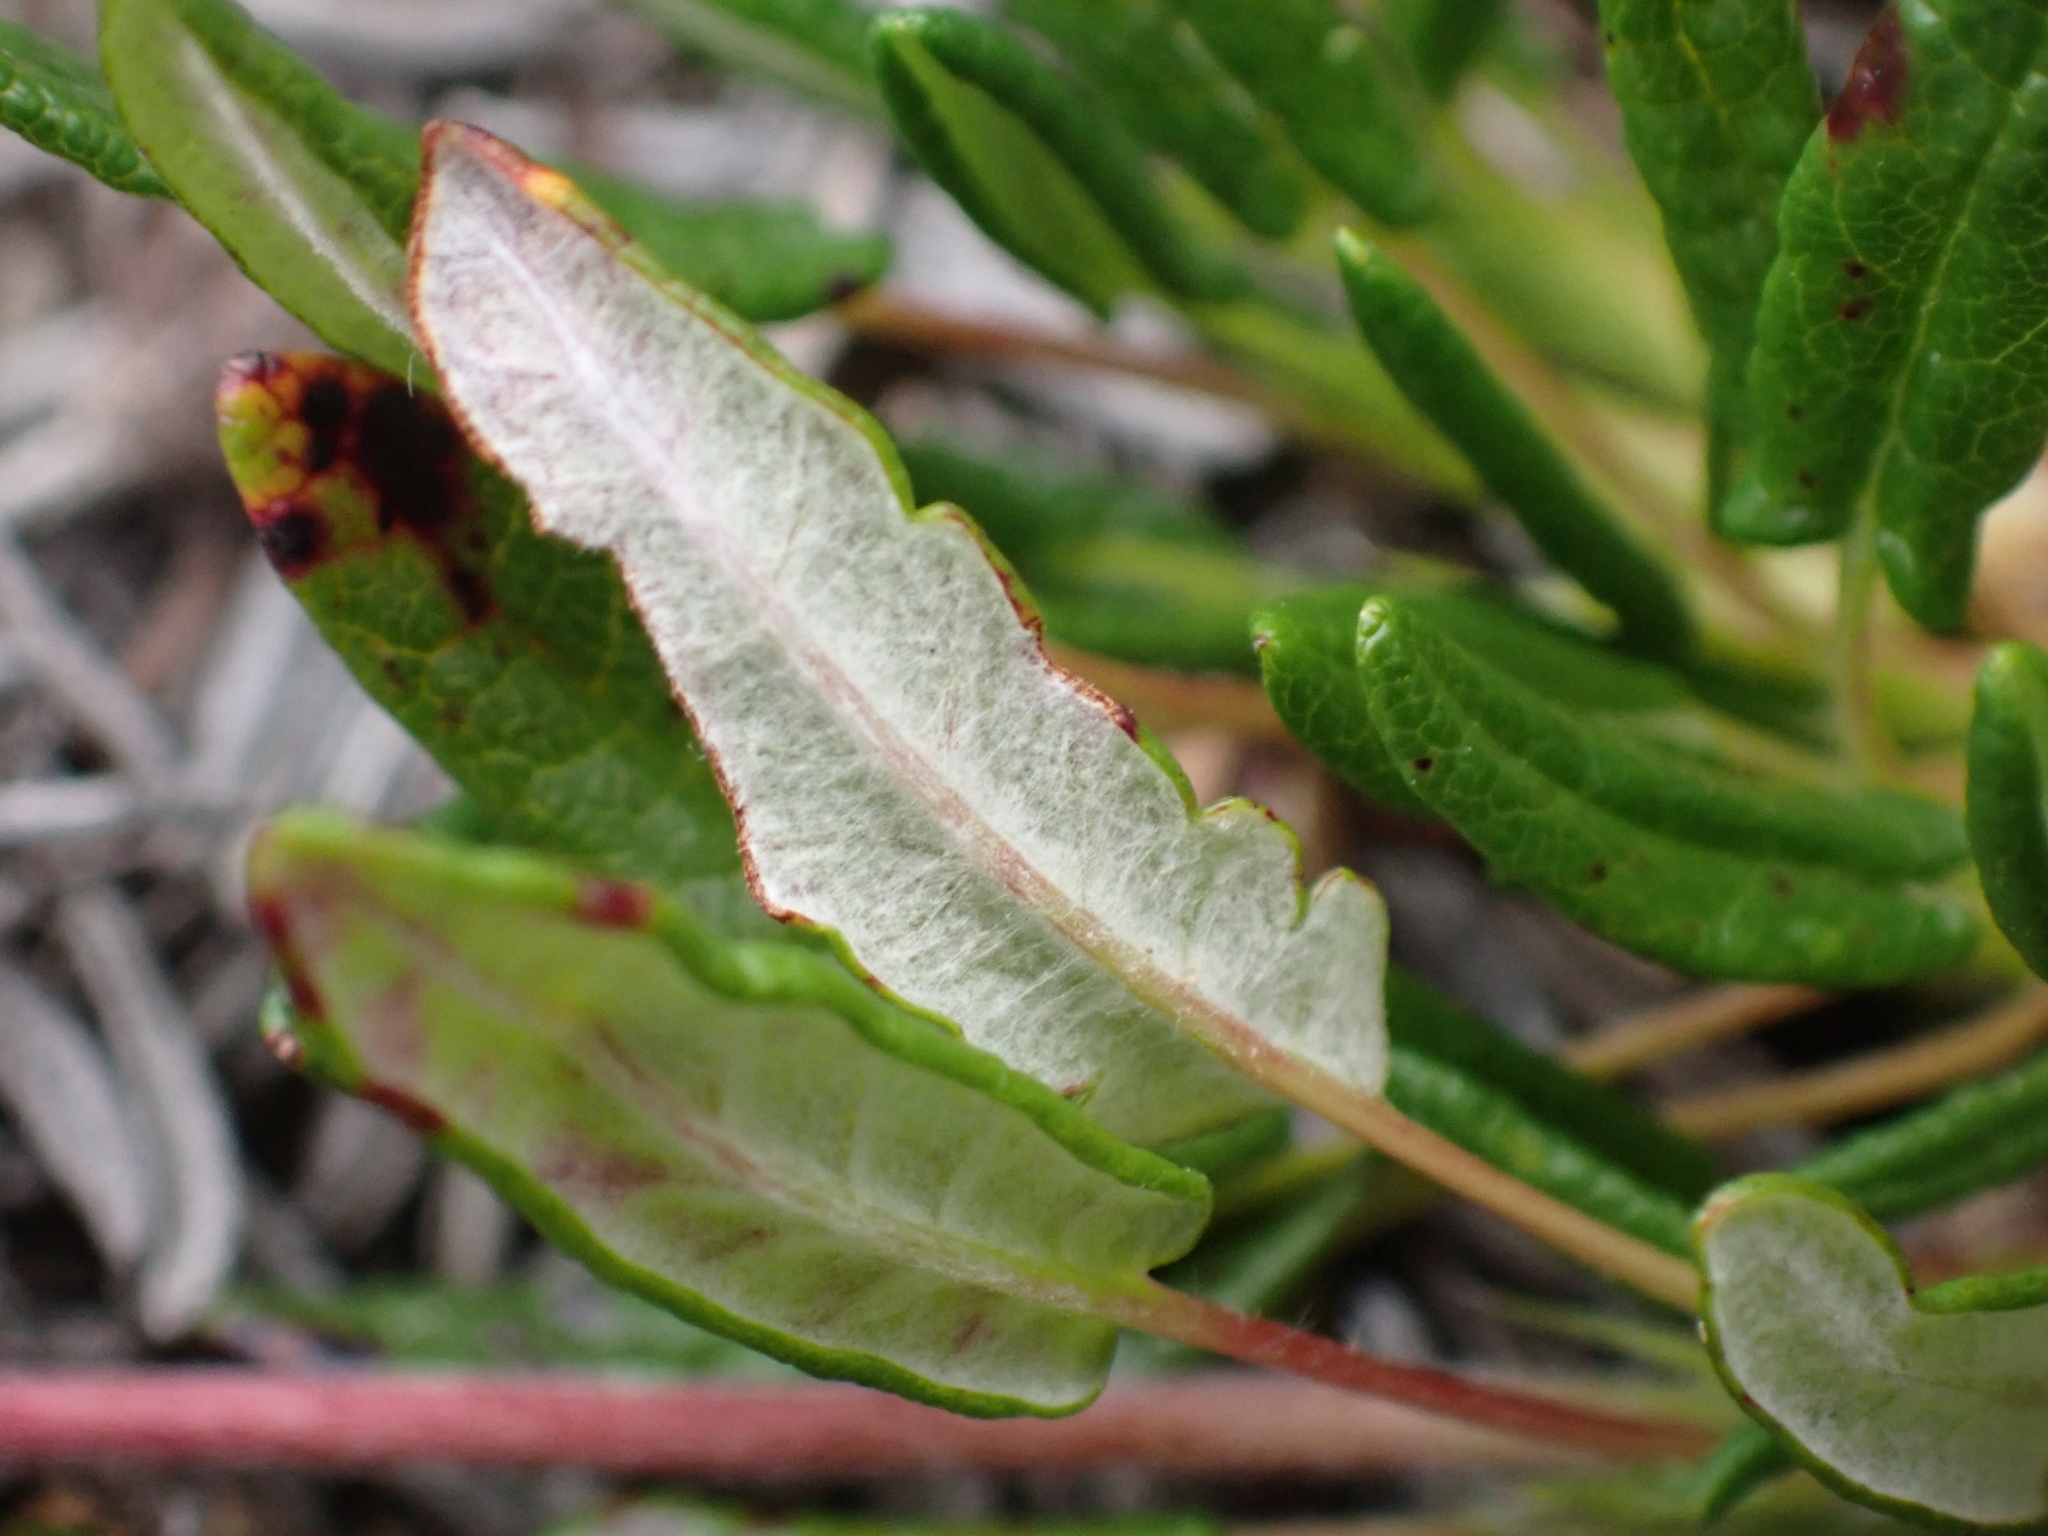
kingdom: Plantae
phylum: Tracheophyta
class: Magnoliopsida
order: Rosales
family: Rosaceae
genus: Dryas
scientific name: Dryas integrifolia
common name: Entire-leaved mountain avens
